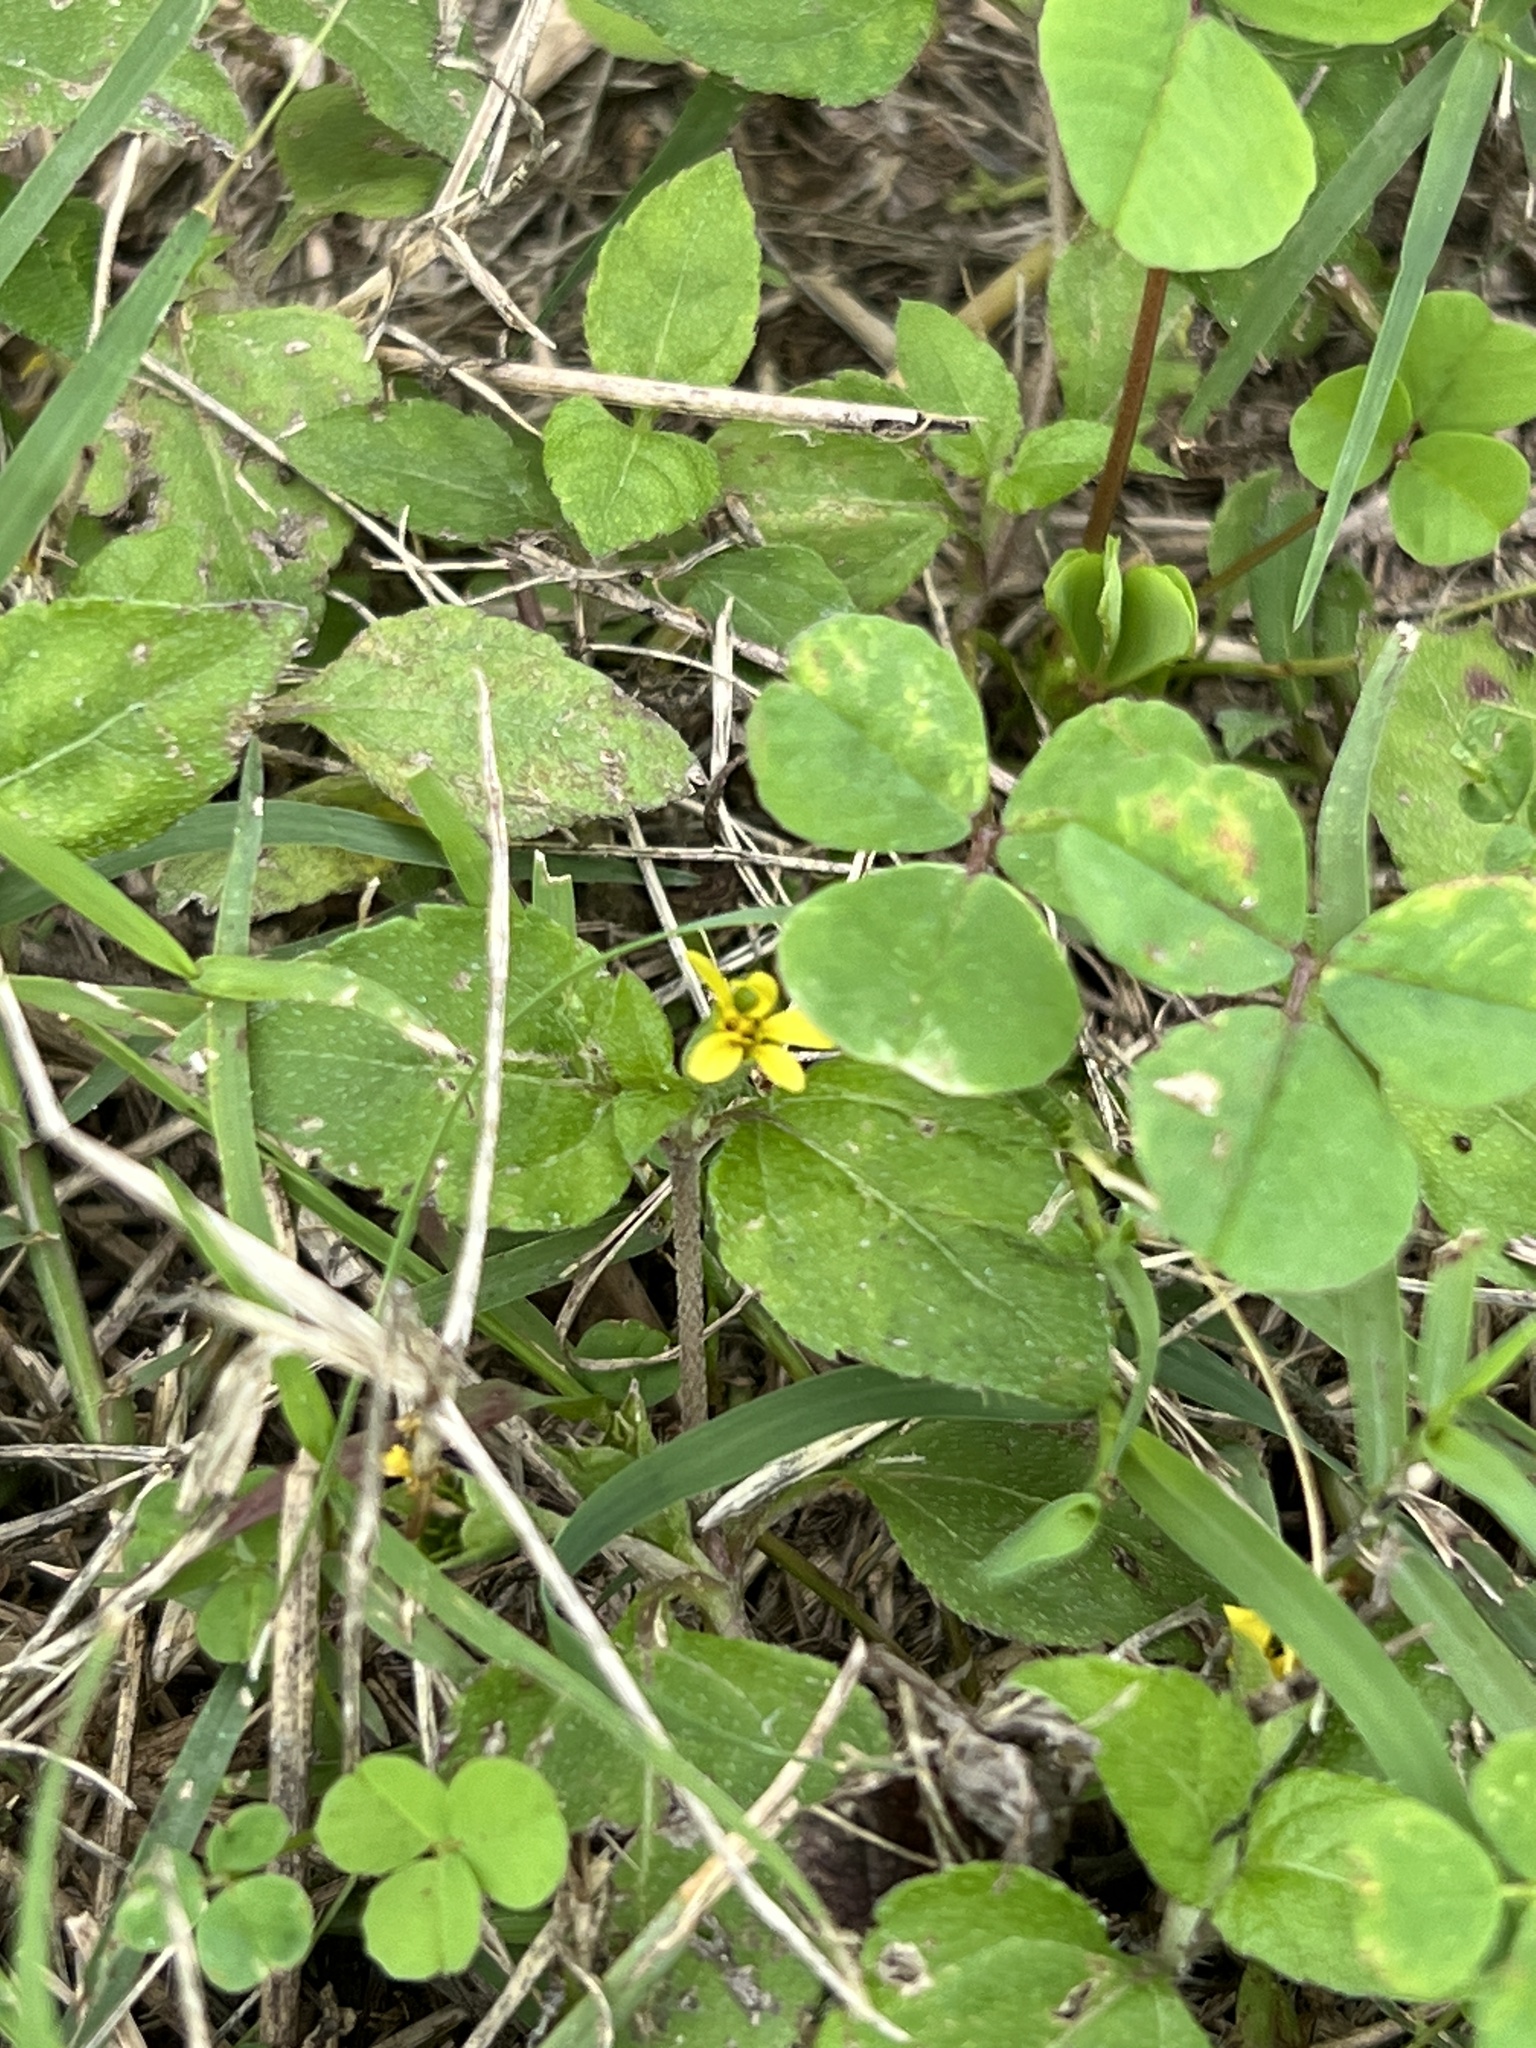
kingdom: Plantae
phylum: Tracheophyta
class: Magnoliopsida
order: Asterales
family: Asteraceae
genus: Calyptocarpus
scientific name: Calyptocarpus vialis
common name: Straggler daisy
